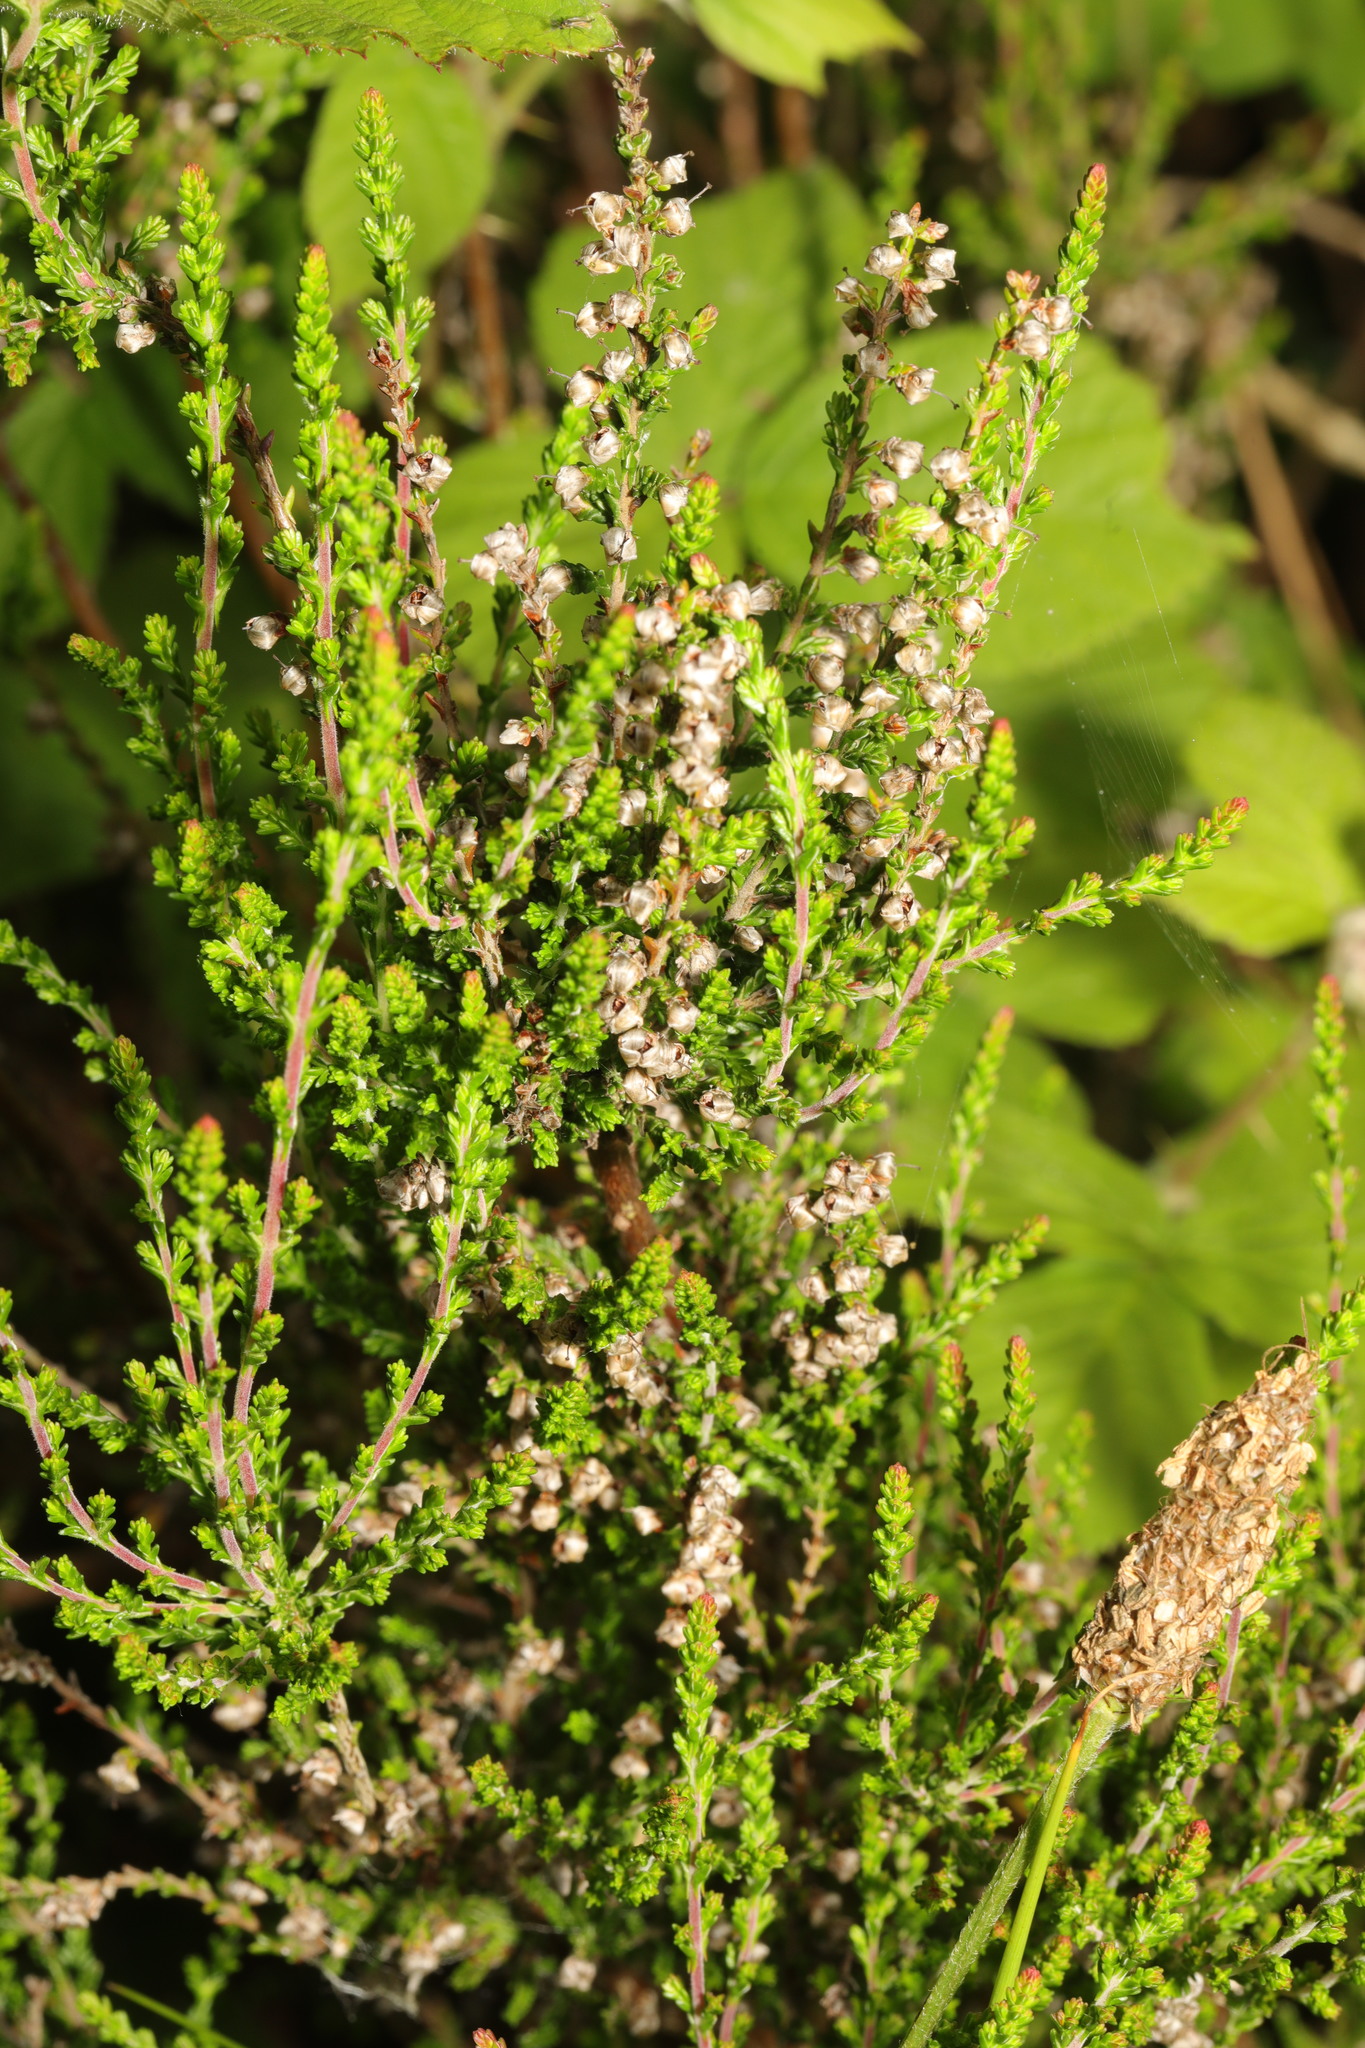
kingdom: Plantae
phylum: Tracheophyta
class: Magnoliopsida
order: Ericales
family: Ericaceae
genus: Calluna
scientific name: Calluna vulgaris
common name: Heather
